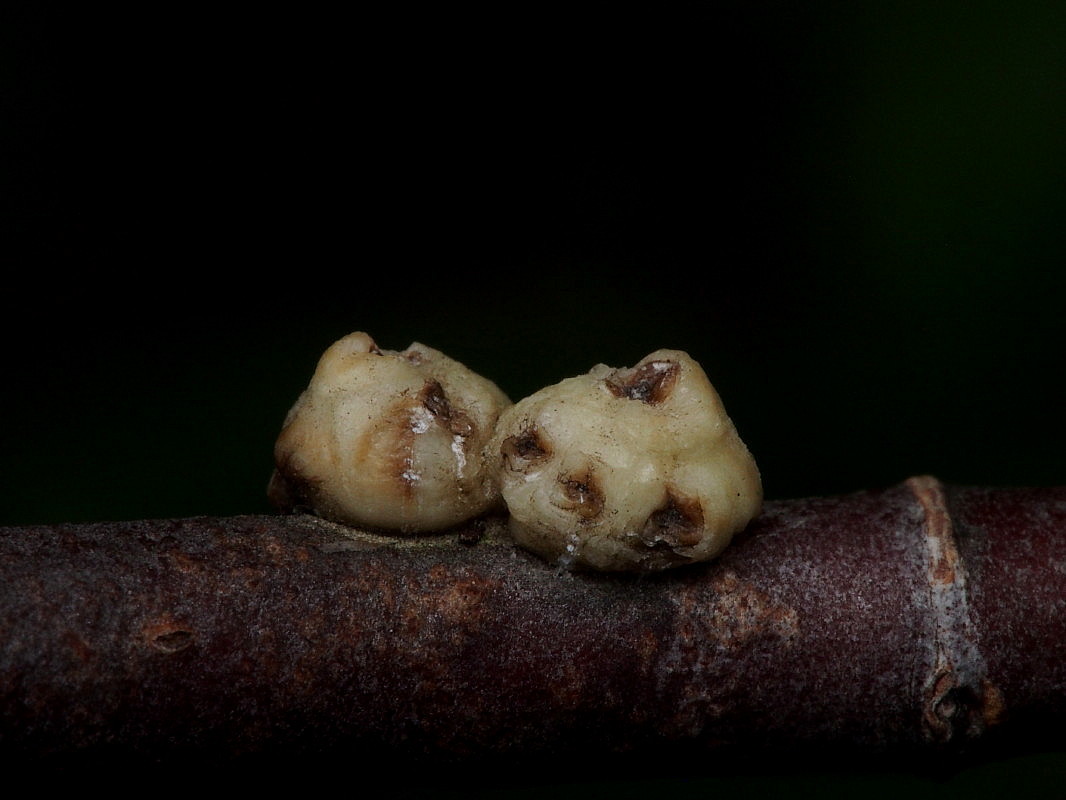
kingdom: Animalia
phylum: Arthropoda
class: Insecta
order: Hemiptera
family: Coccidae
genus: Ceroplastes
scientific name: Ceroplastes sinensis
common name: Hard wax scale
